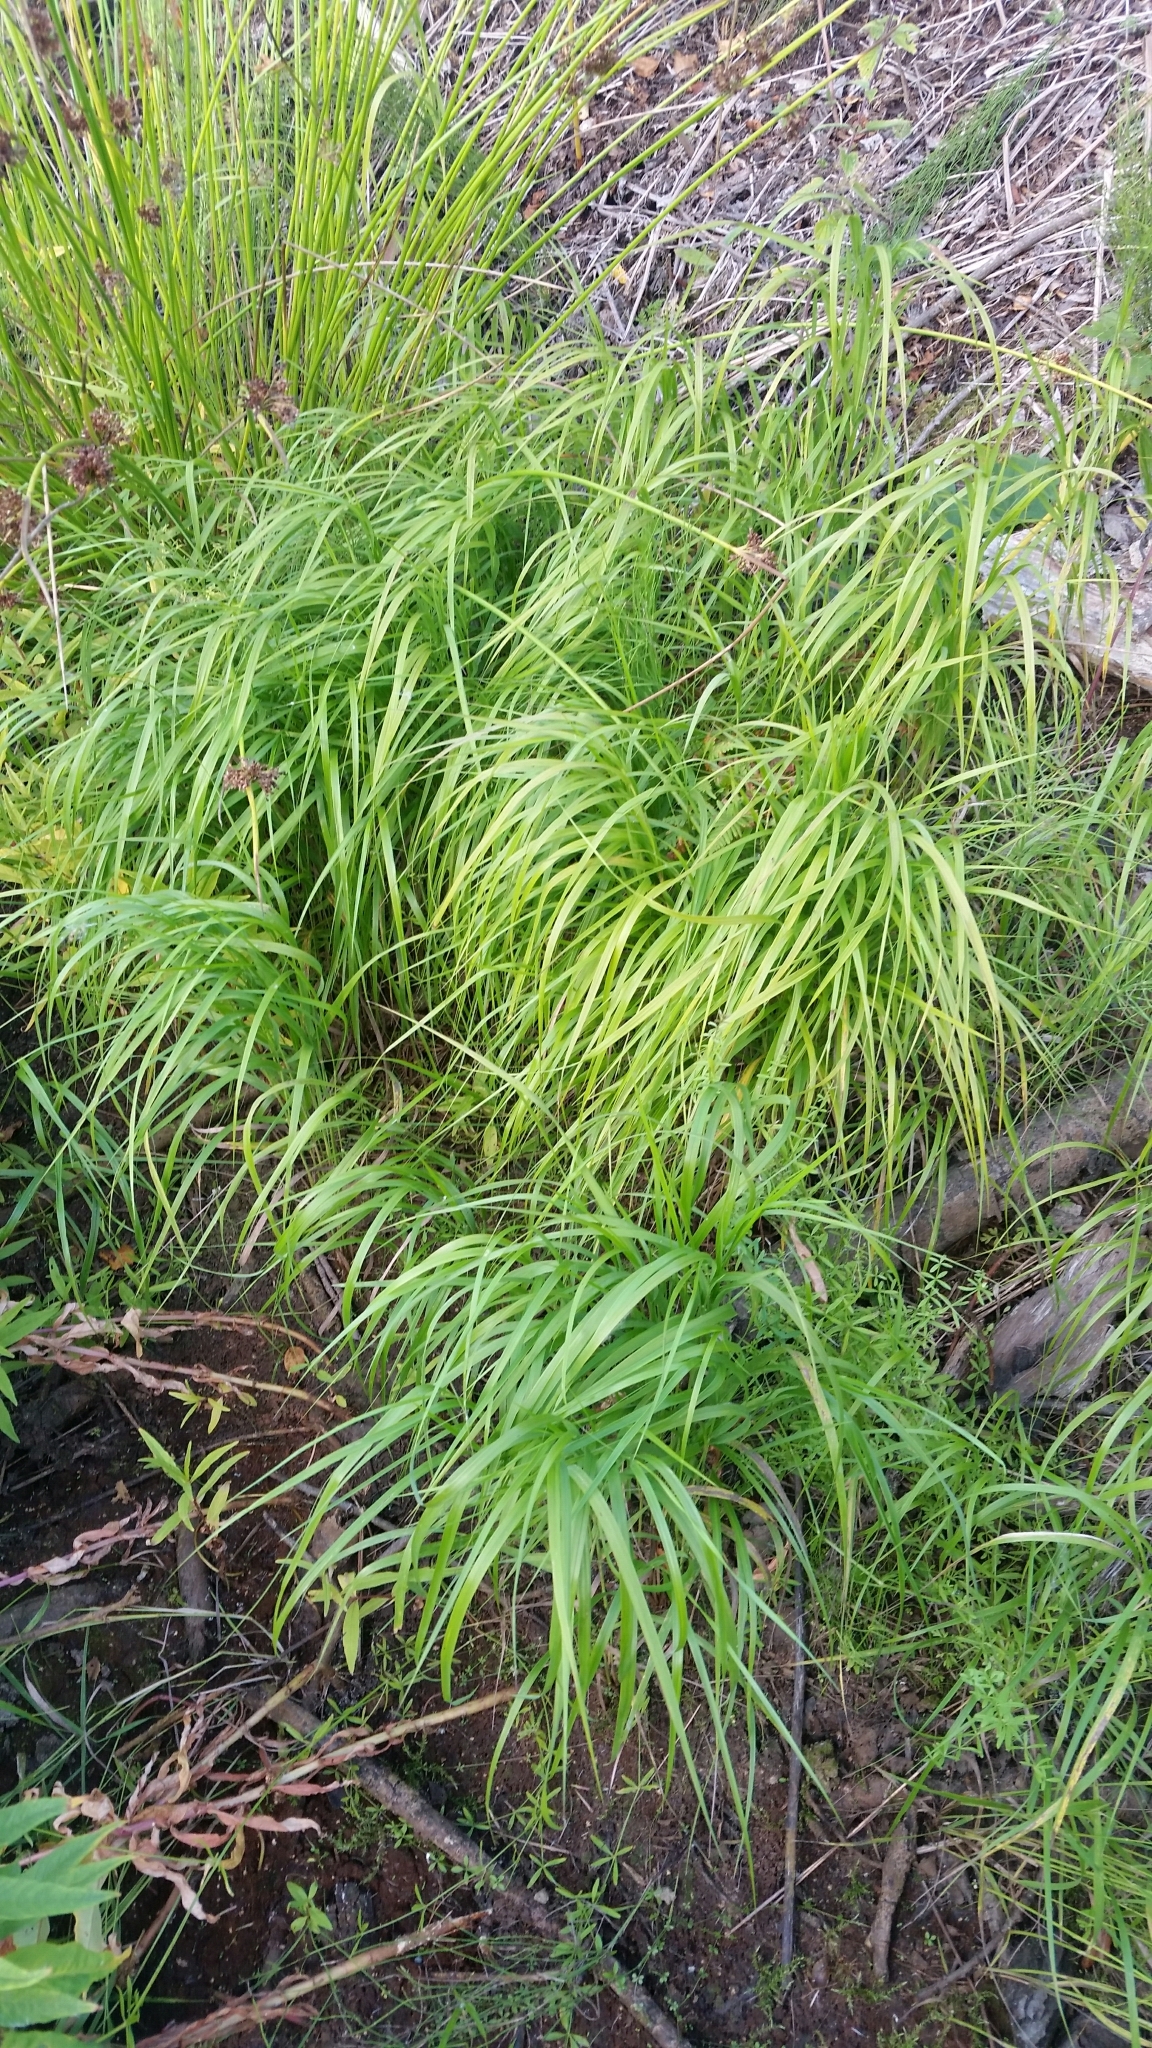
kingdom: Plantae
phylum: Tracheophyta
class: Liliopsida
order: Poales
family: Poaceae
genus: Calamagrostis
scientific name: Calamagrostis canescens
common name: Purple small-reed
